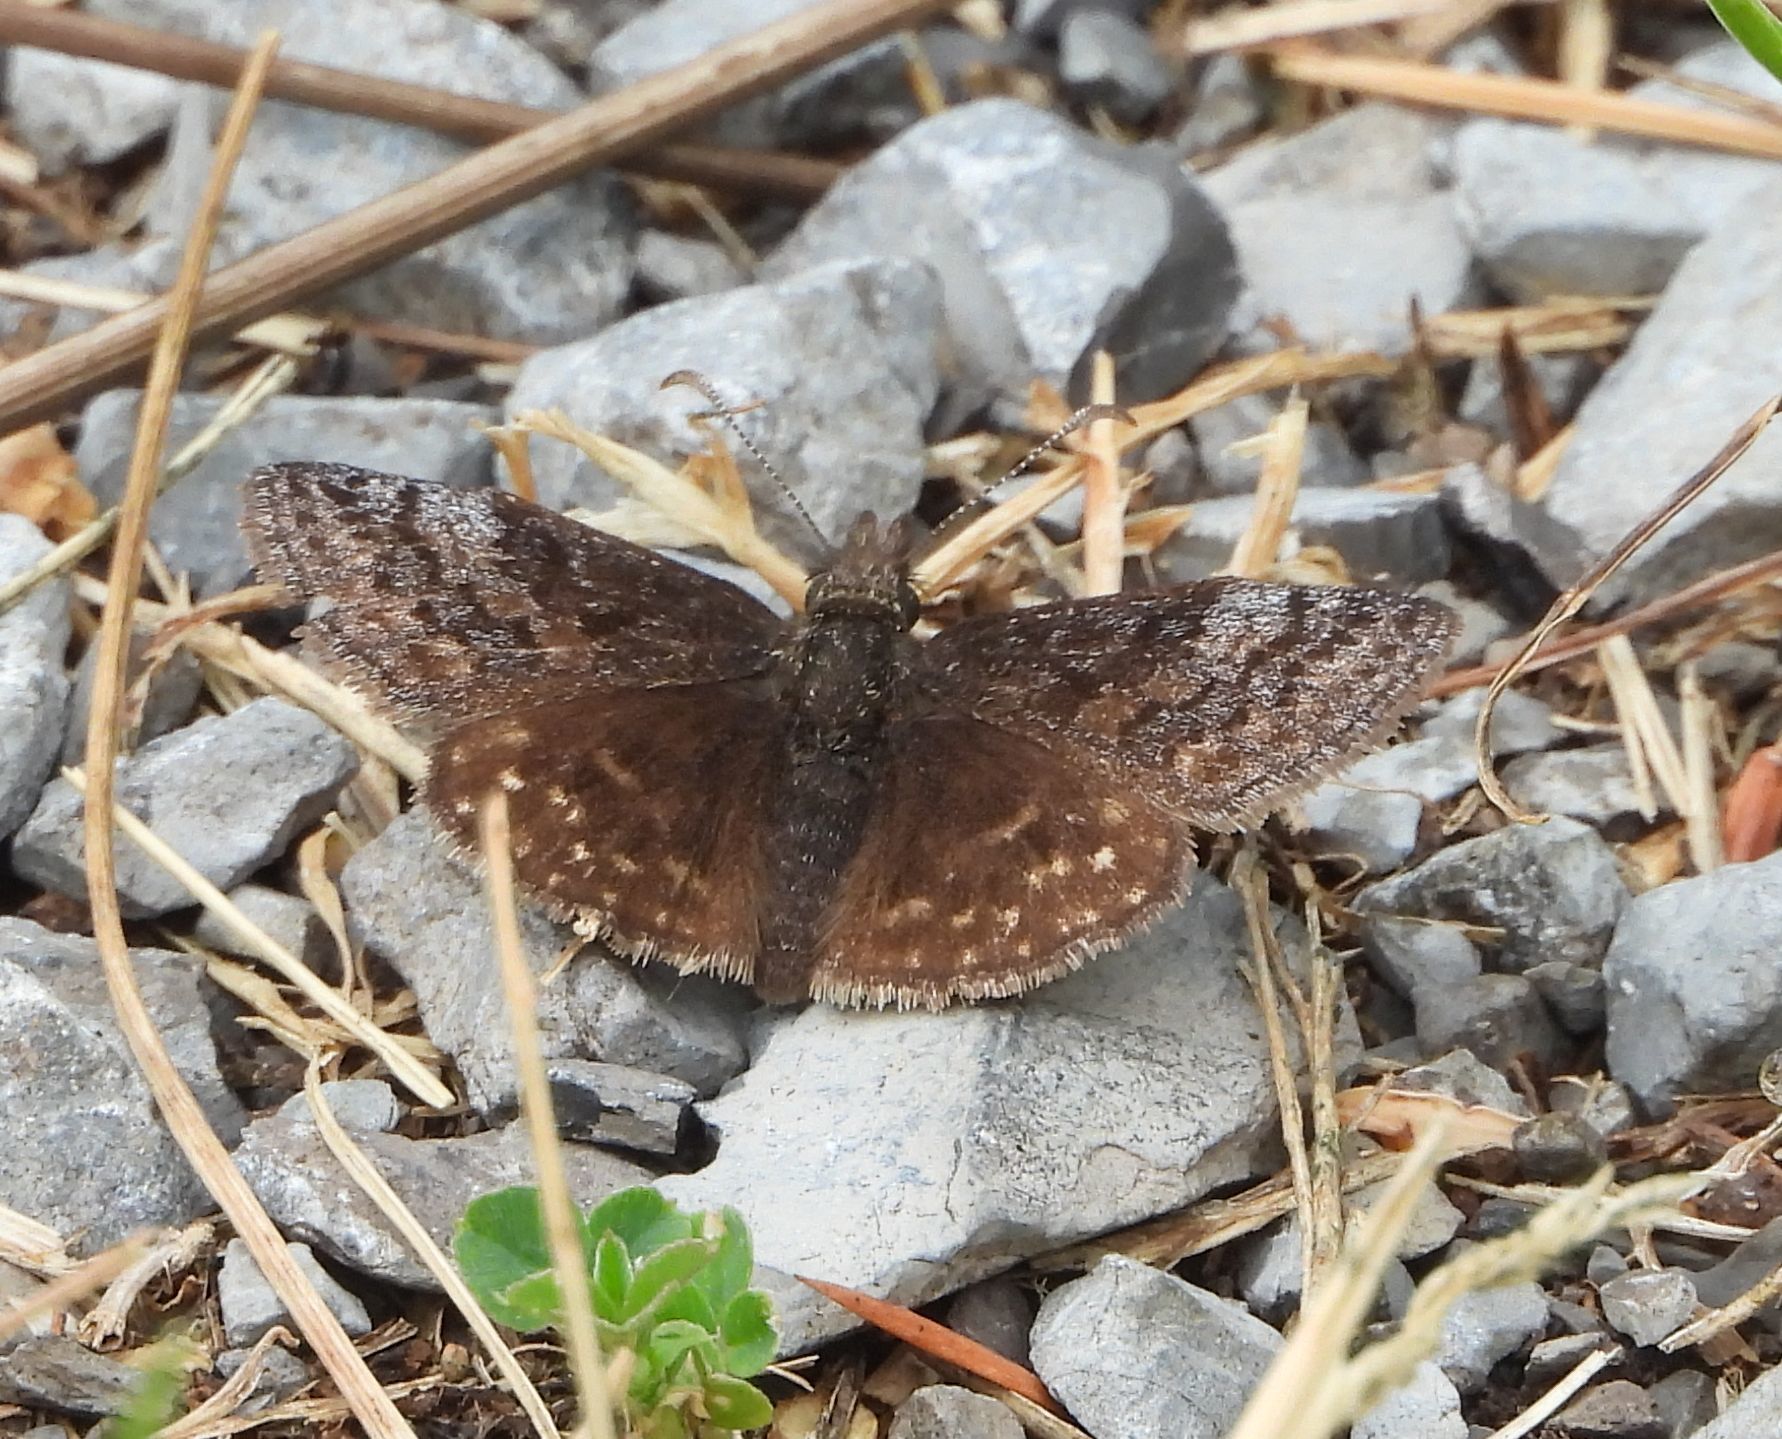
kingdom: Animalia
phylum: Arthropoda
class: Insecta
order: Lepidoptera
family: Hesperiidae
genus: Erynnis
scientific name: Erynnis icelus
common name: Dreamy duskywing
